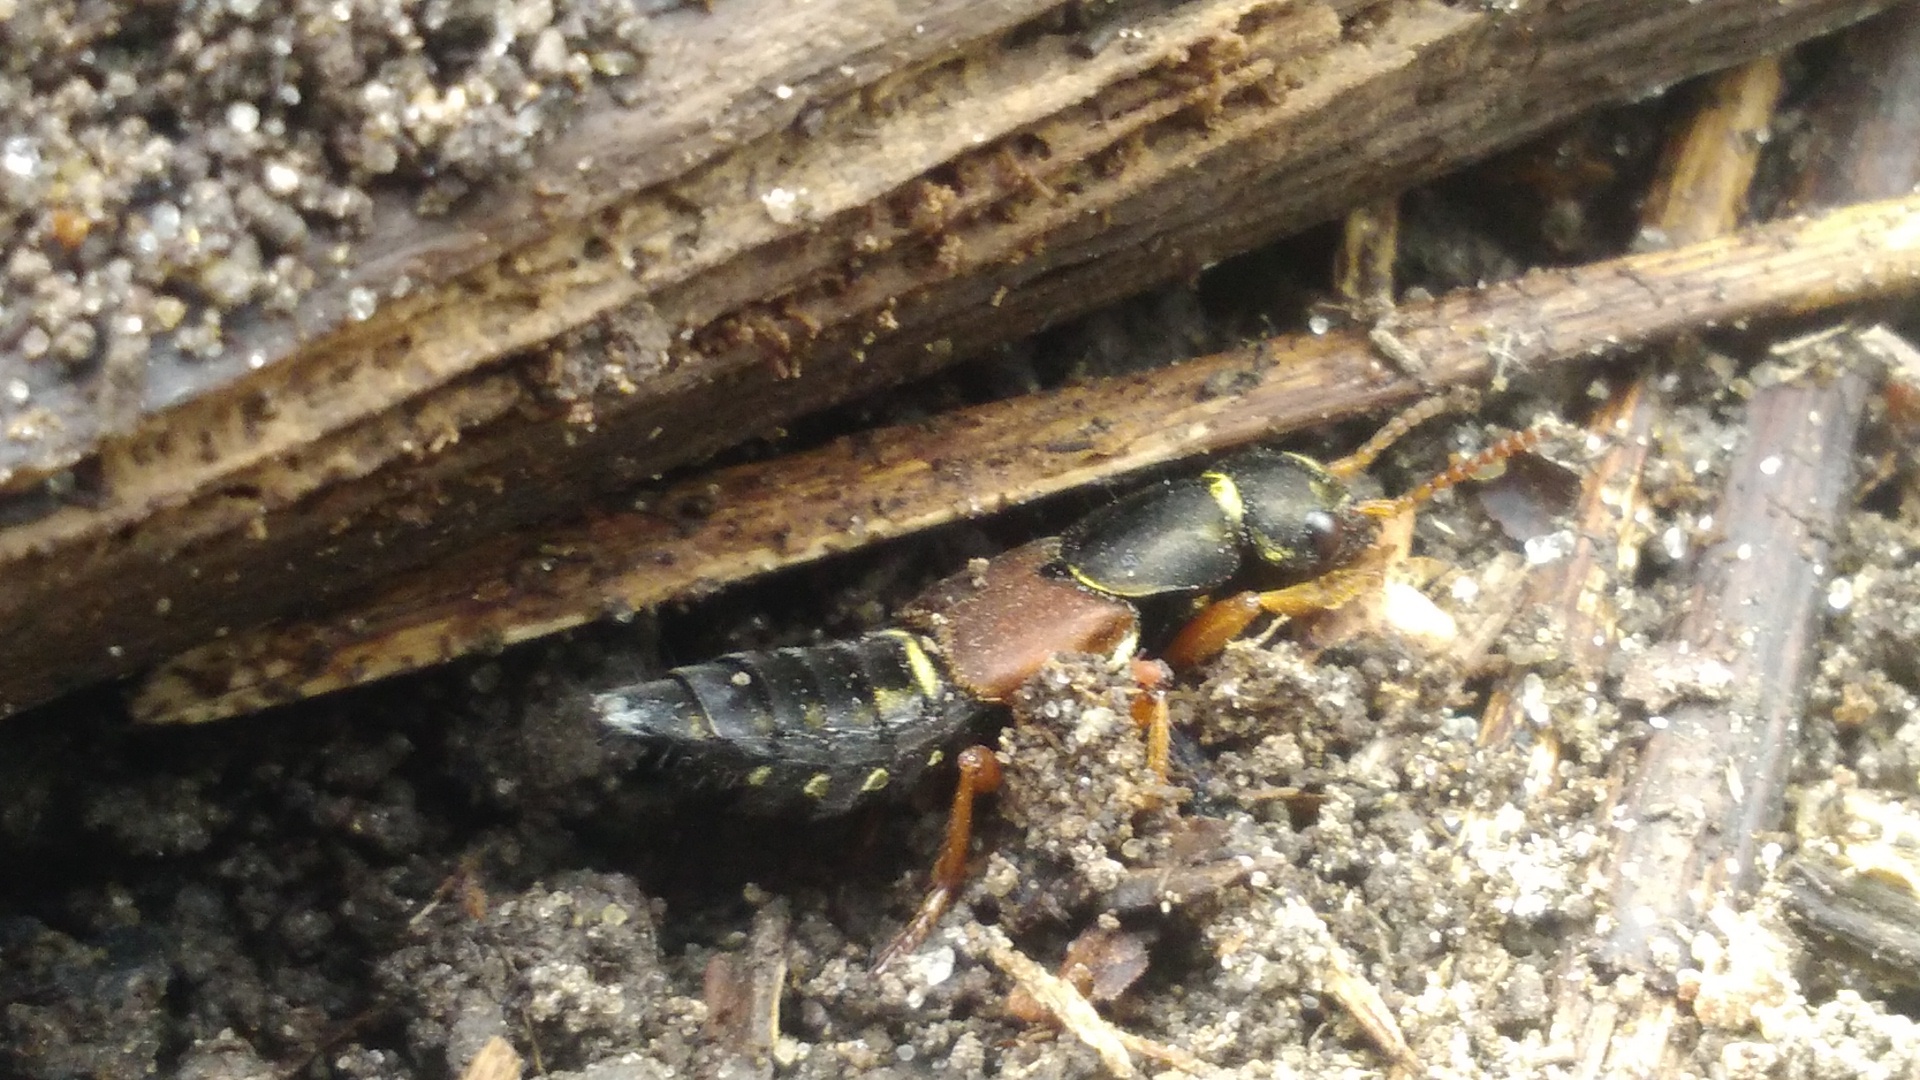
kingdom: Animalia
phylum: Arthropoda
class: Insecta
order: Coleoptera
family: Staphylinidae
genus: Staphylinus
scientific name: Staphylinus caesareus
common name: Staph beetle
